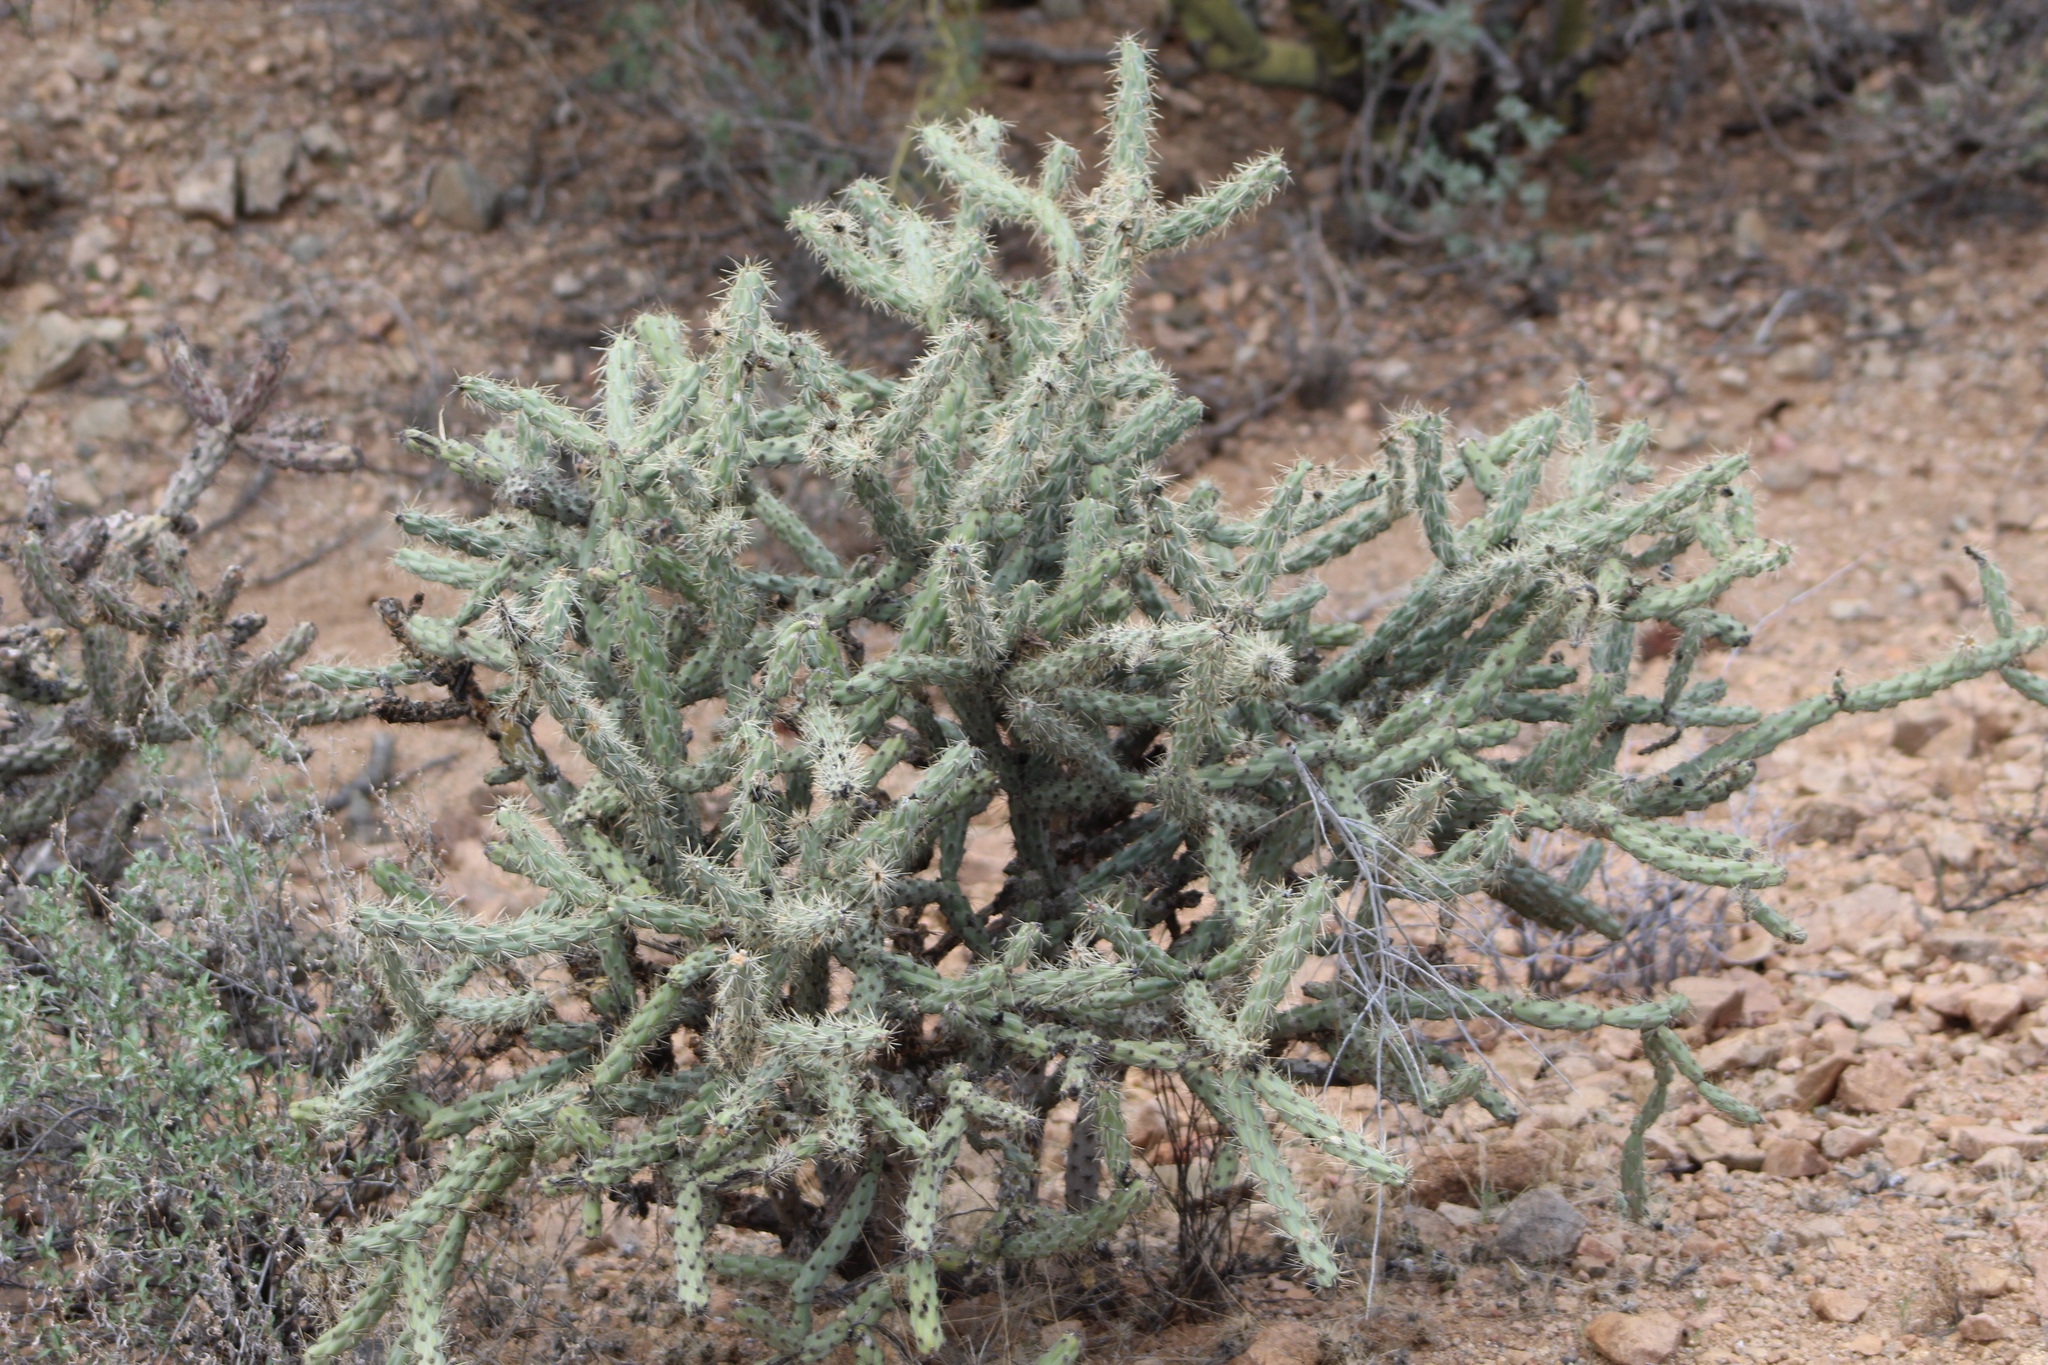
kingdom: Plantae
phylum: Tracheophyta
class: Magnoliopsida
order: Caryophyllales
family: Cactaceae
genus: Cylindropuntia
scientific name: Cylindropuntia acanthocarpa
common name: Buckhorn cholla
